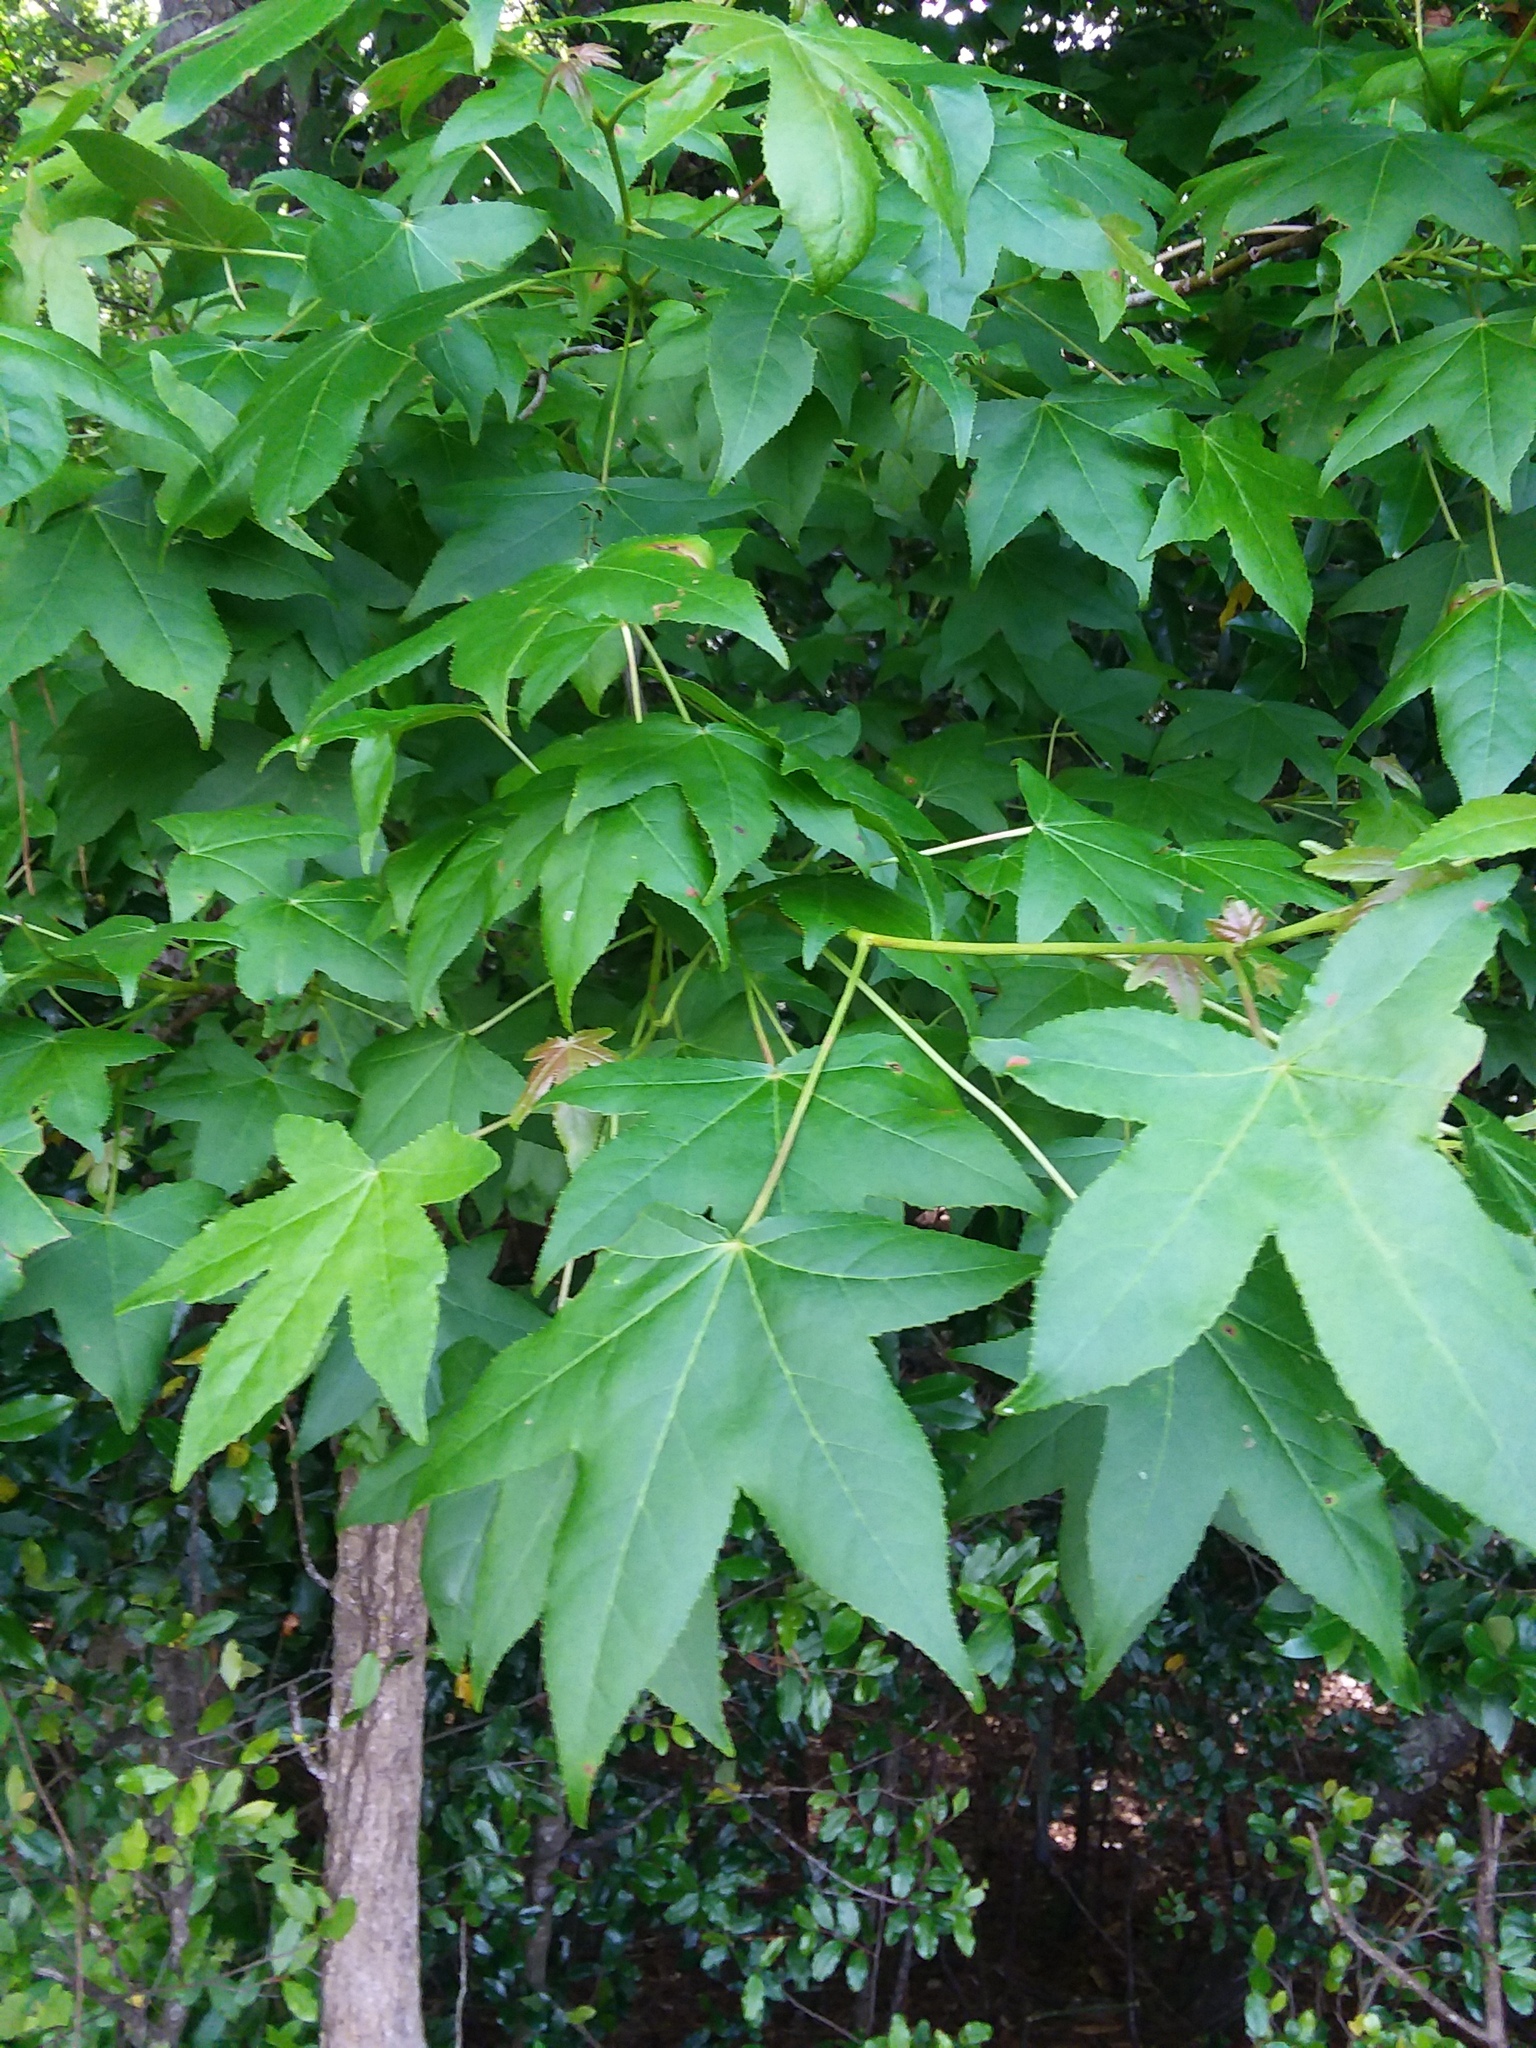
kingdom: Plantae
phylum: Tracheophyta
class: Magnoliopsida
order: Saxifragales
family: Altingiaceae
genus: Liquidambar
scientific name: Liquidambar styraciflua
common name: Sweet gum
